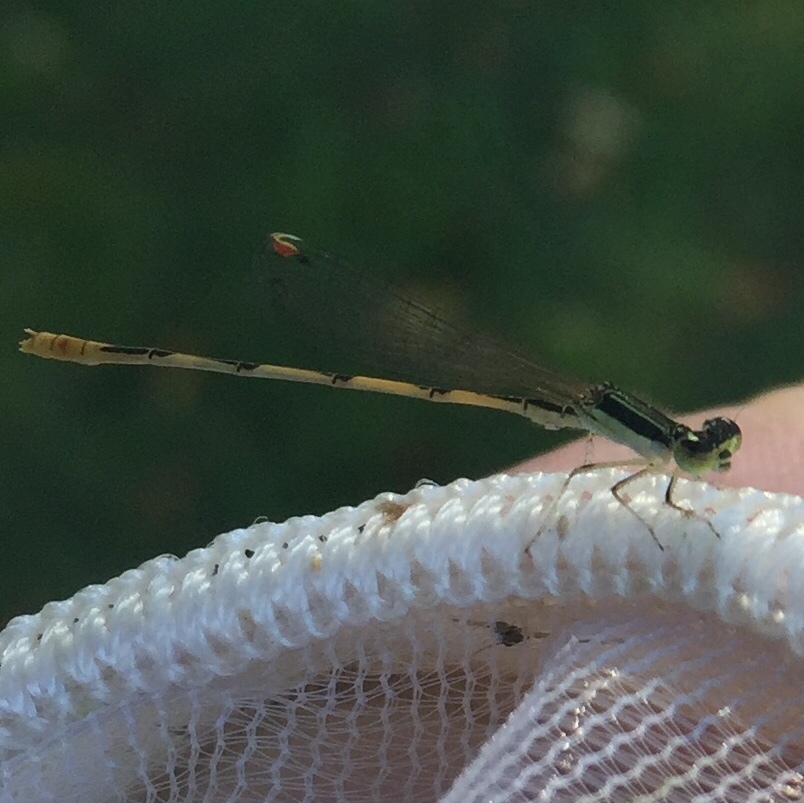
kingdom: Animalia
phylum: Arthropoda
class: Insecta
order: Odonata
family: Coenagrionidae
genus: Ischnura
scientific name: Ischnura hastata
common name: Citrine forktail
